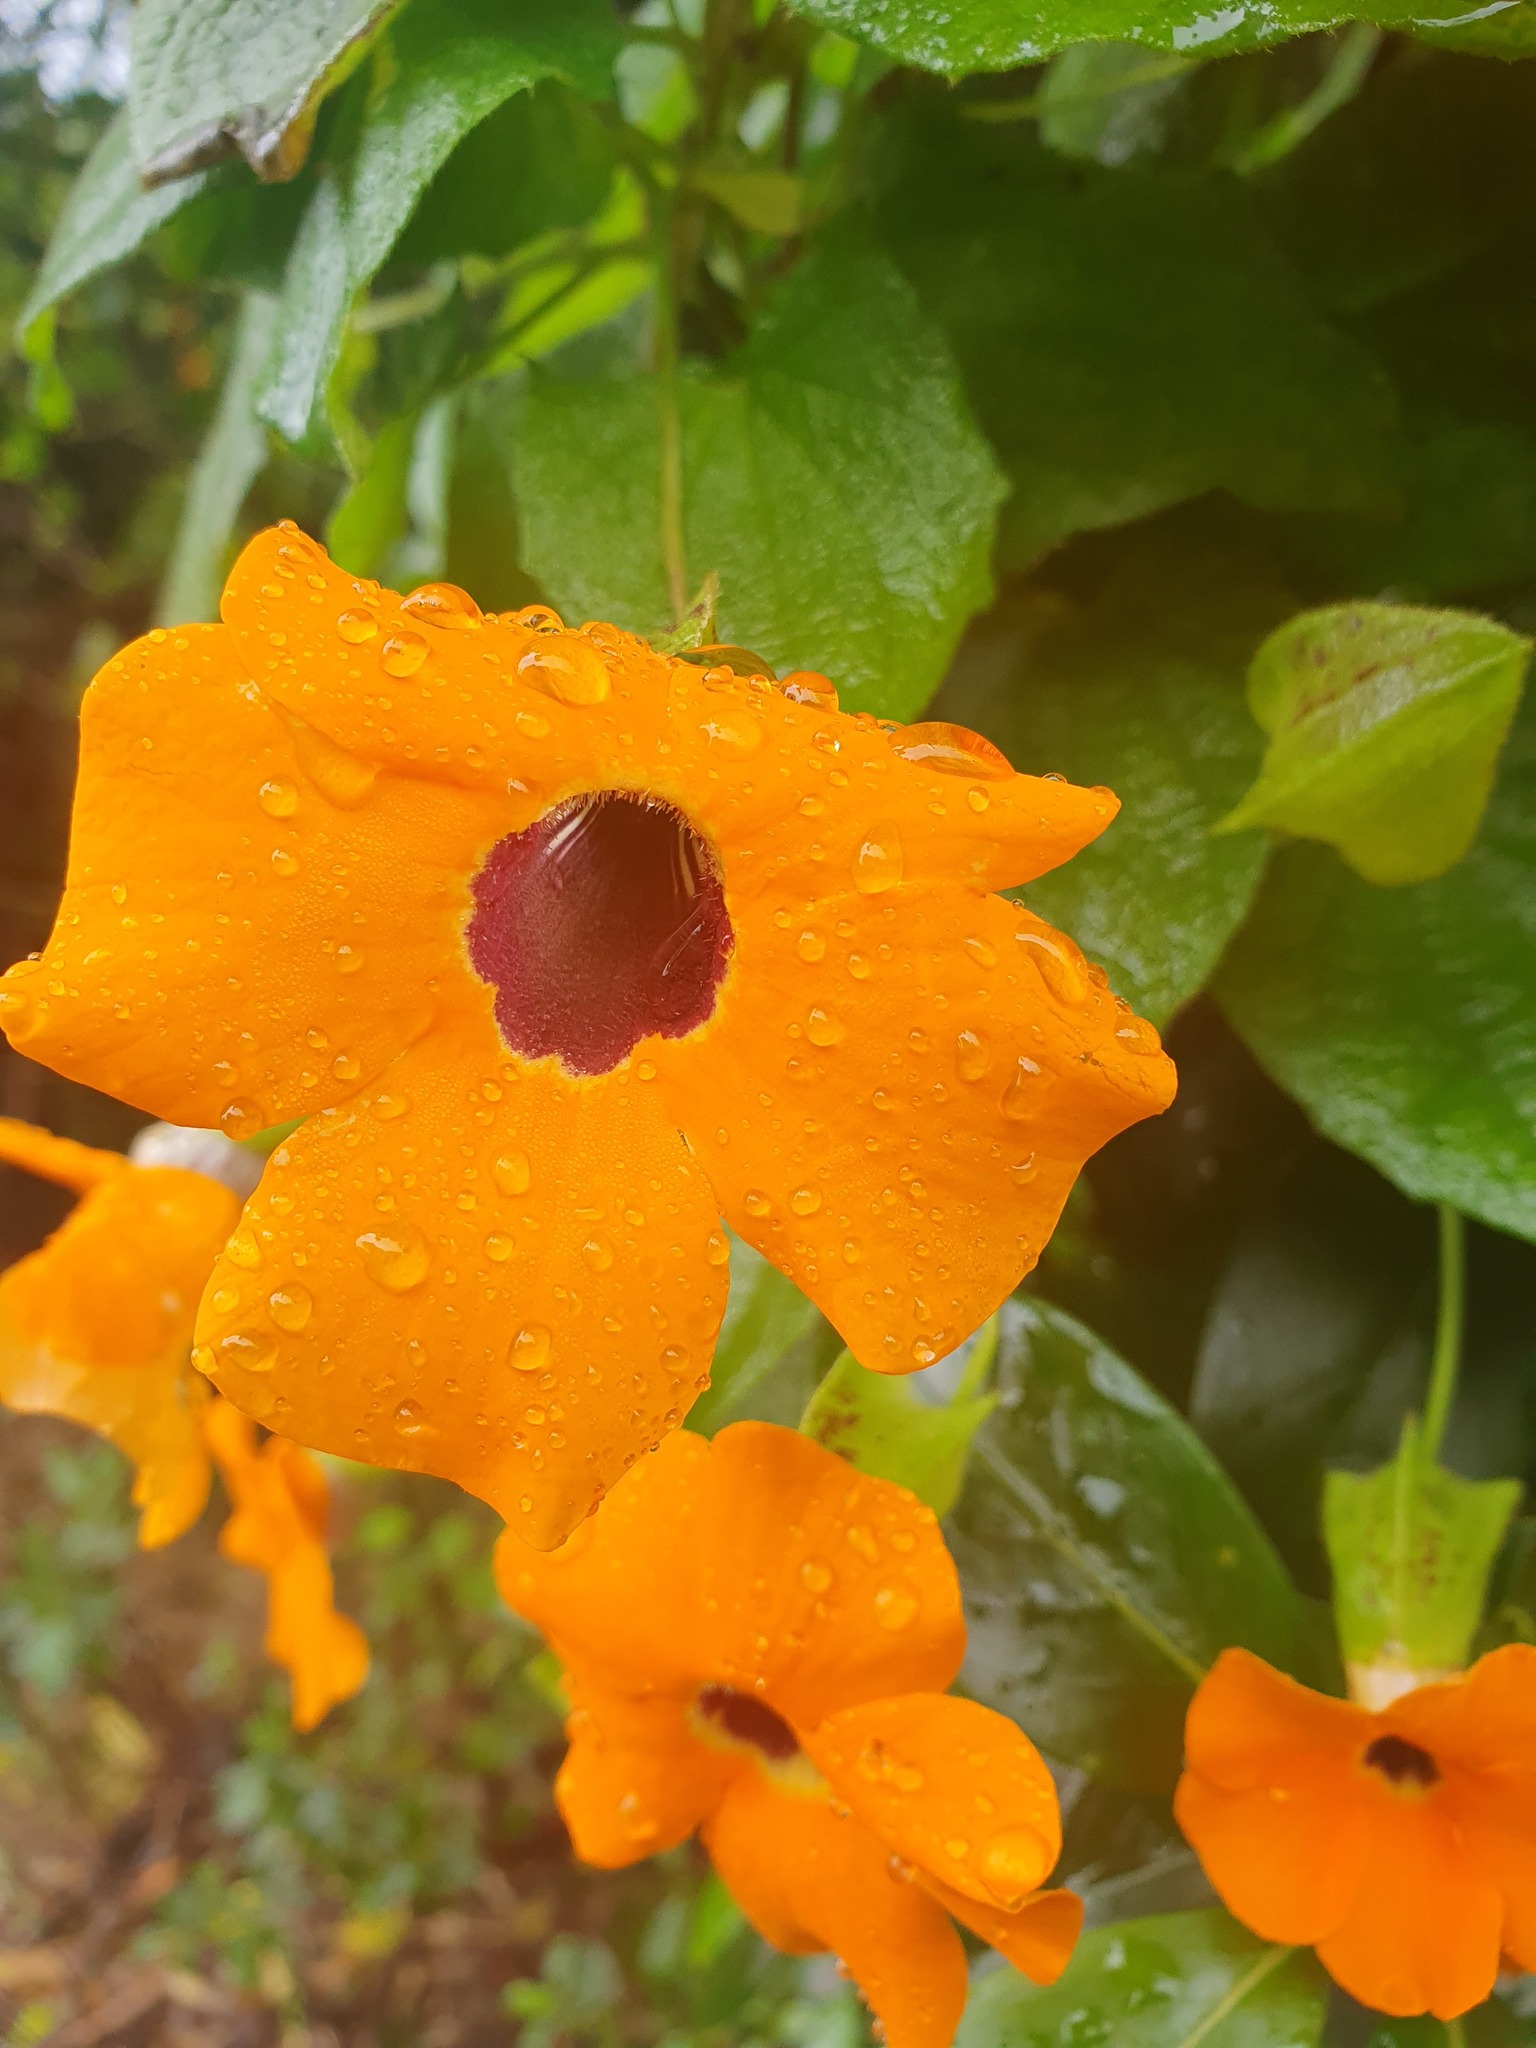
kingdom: Plantae
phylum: Tracheophyta
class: Magnoliopsida
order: Lamiales
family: Acanthaceae
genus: Thunbergia
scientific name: Thunbergia alata
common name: Blackeyed susan vine
